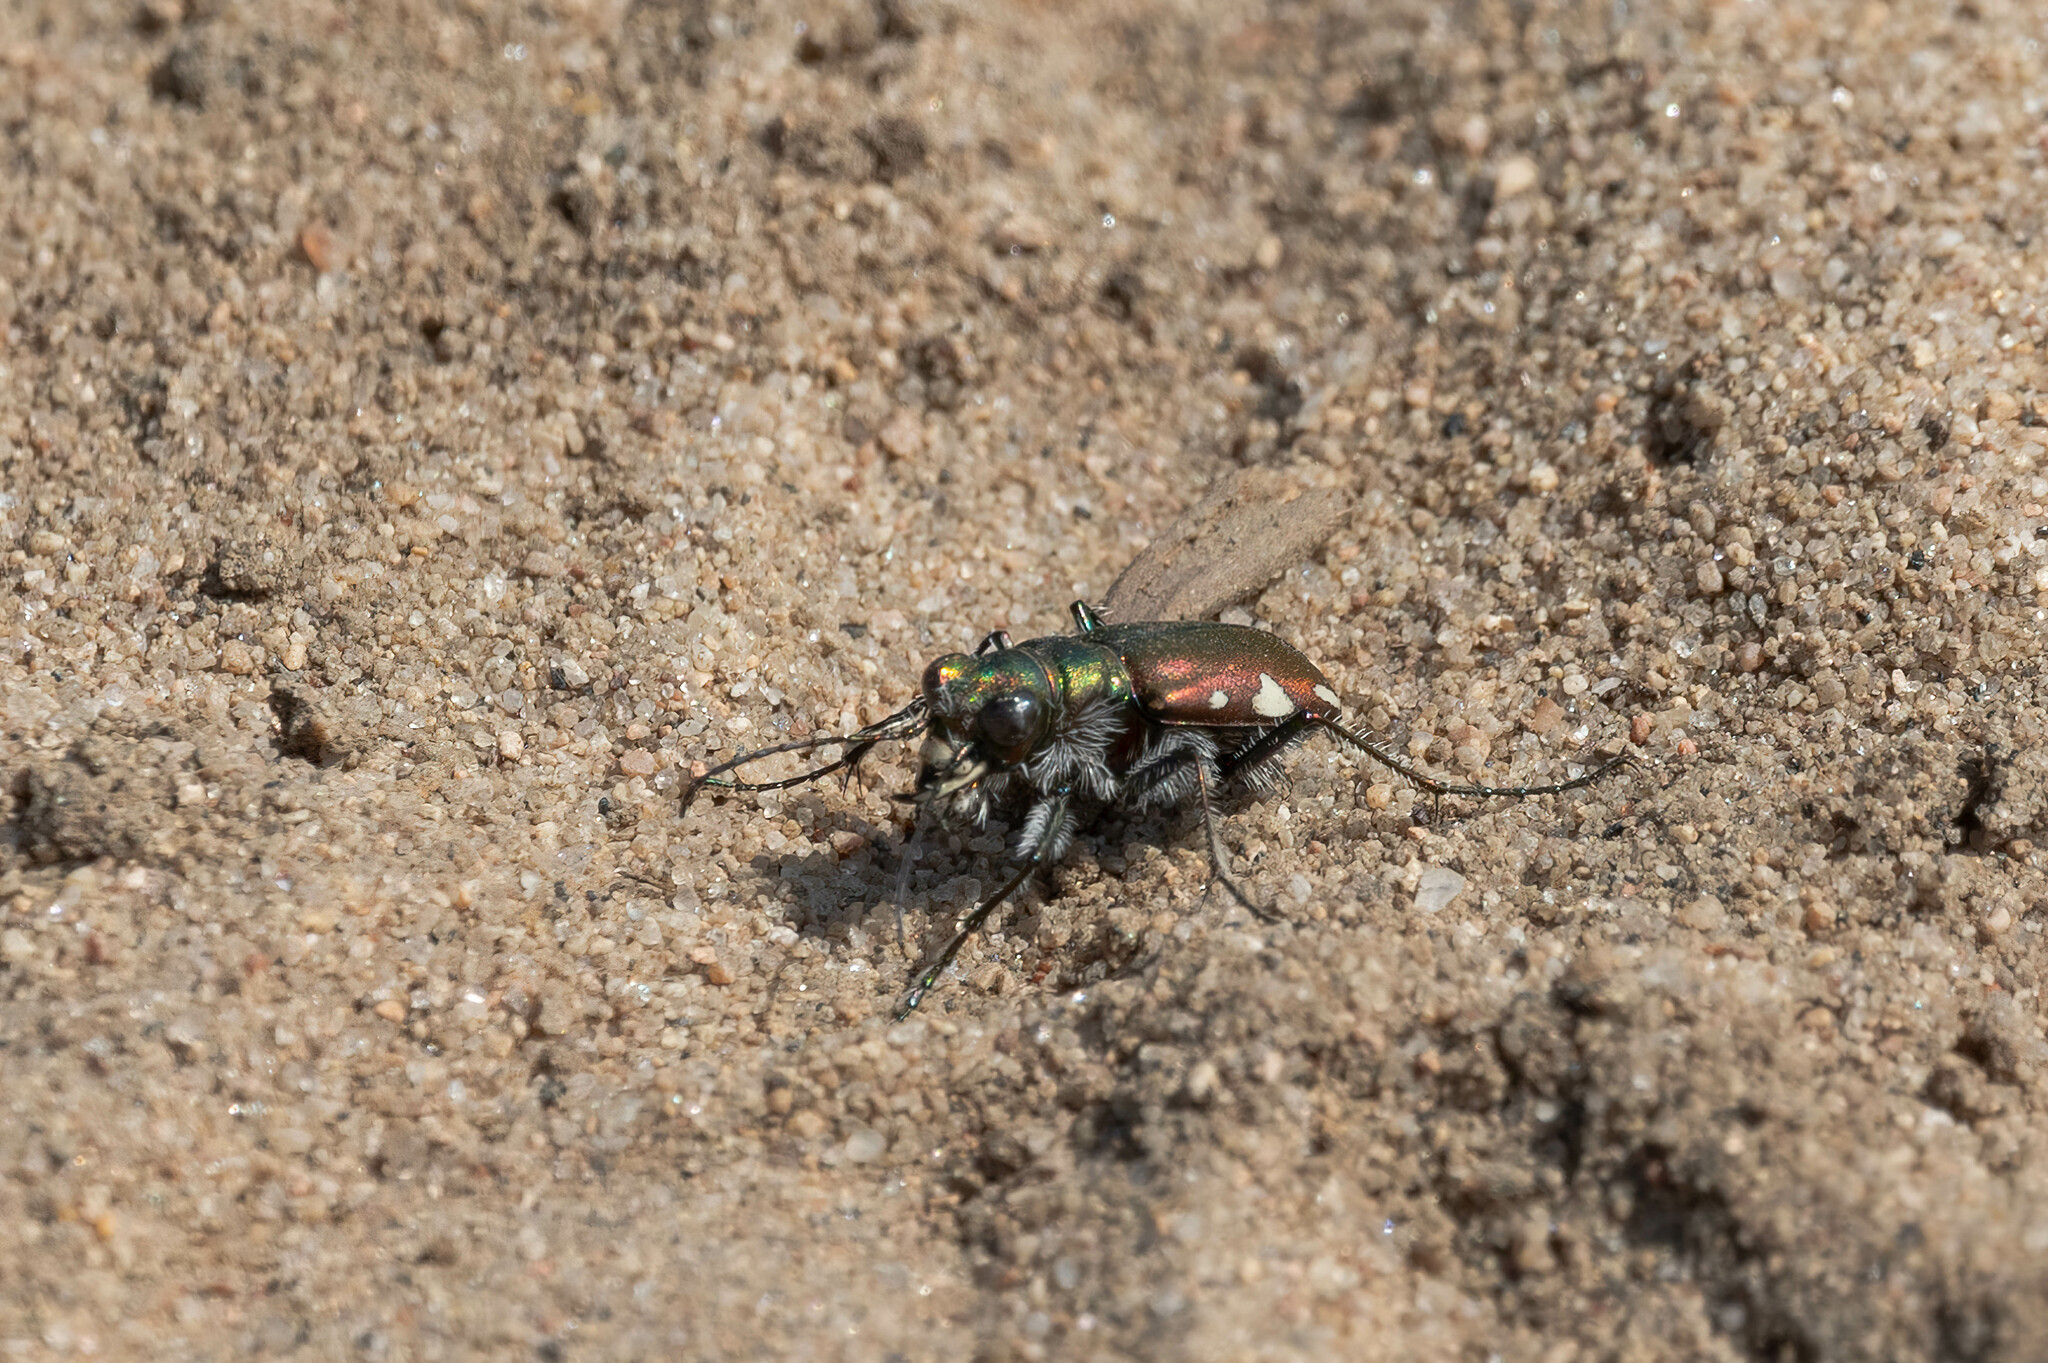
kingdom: Animalia
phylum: Arthropoda
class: Insecta
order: Coleoptera
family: Carabidae
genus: Cicindela
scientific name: Cicindela scutellaris
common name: Festive tiger beetle
